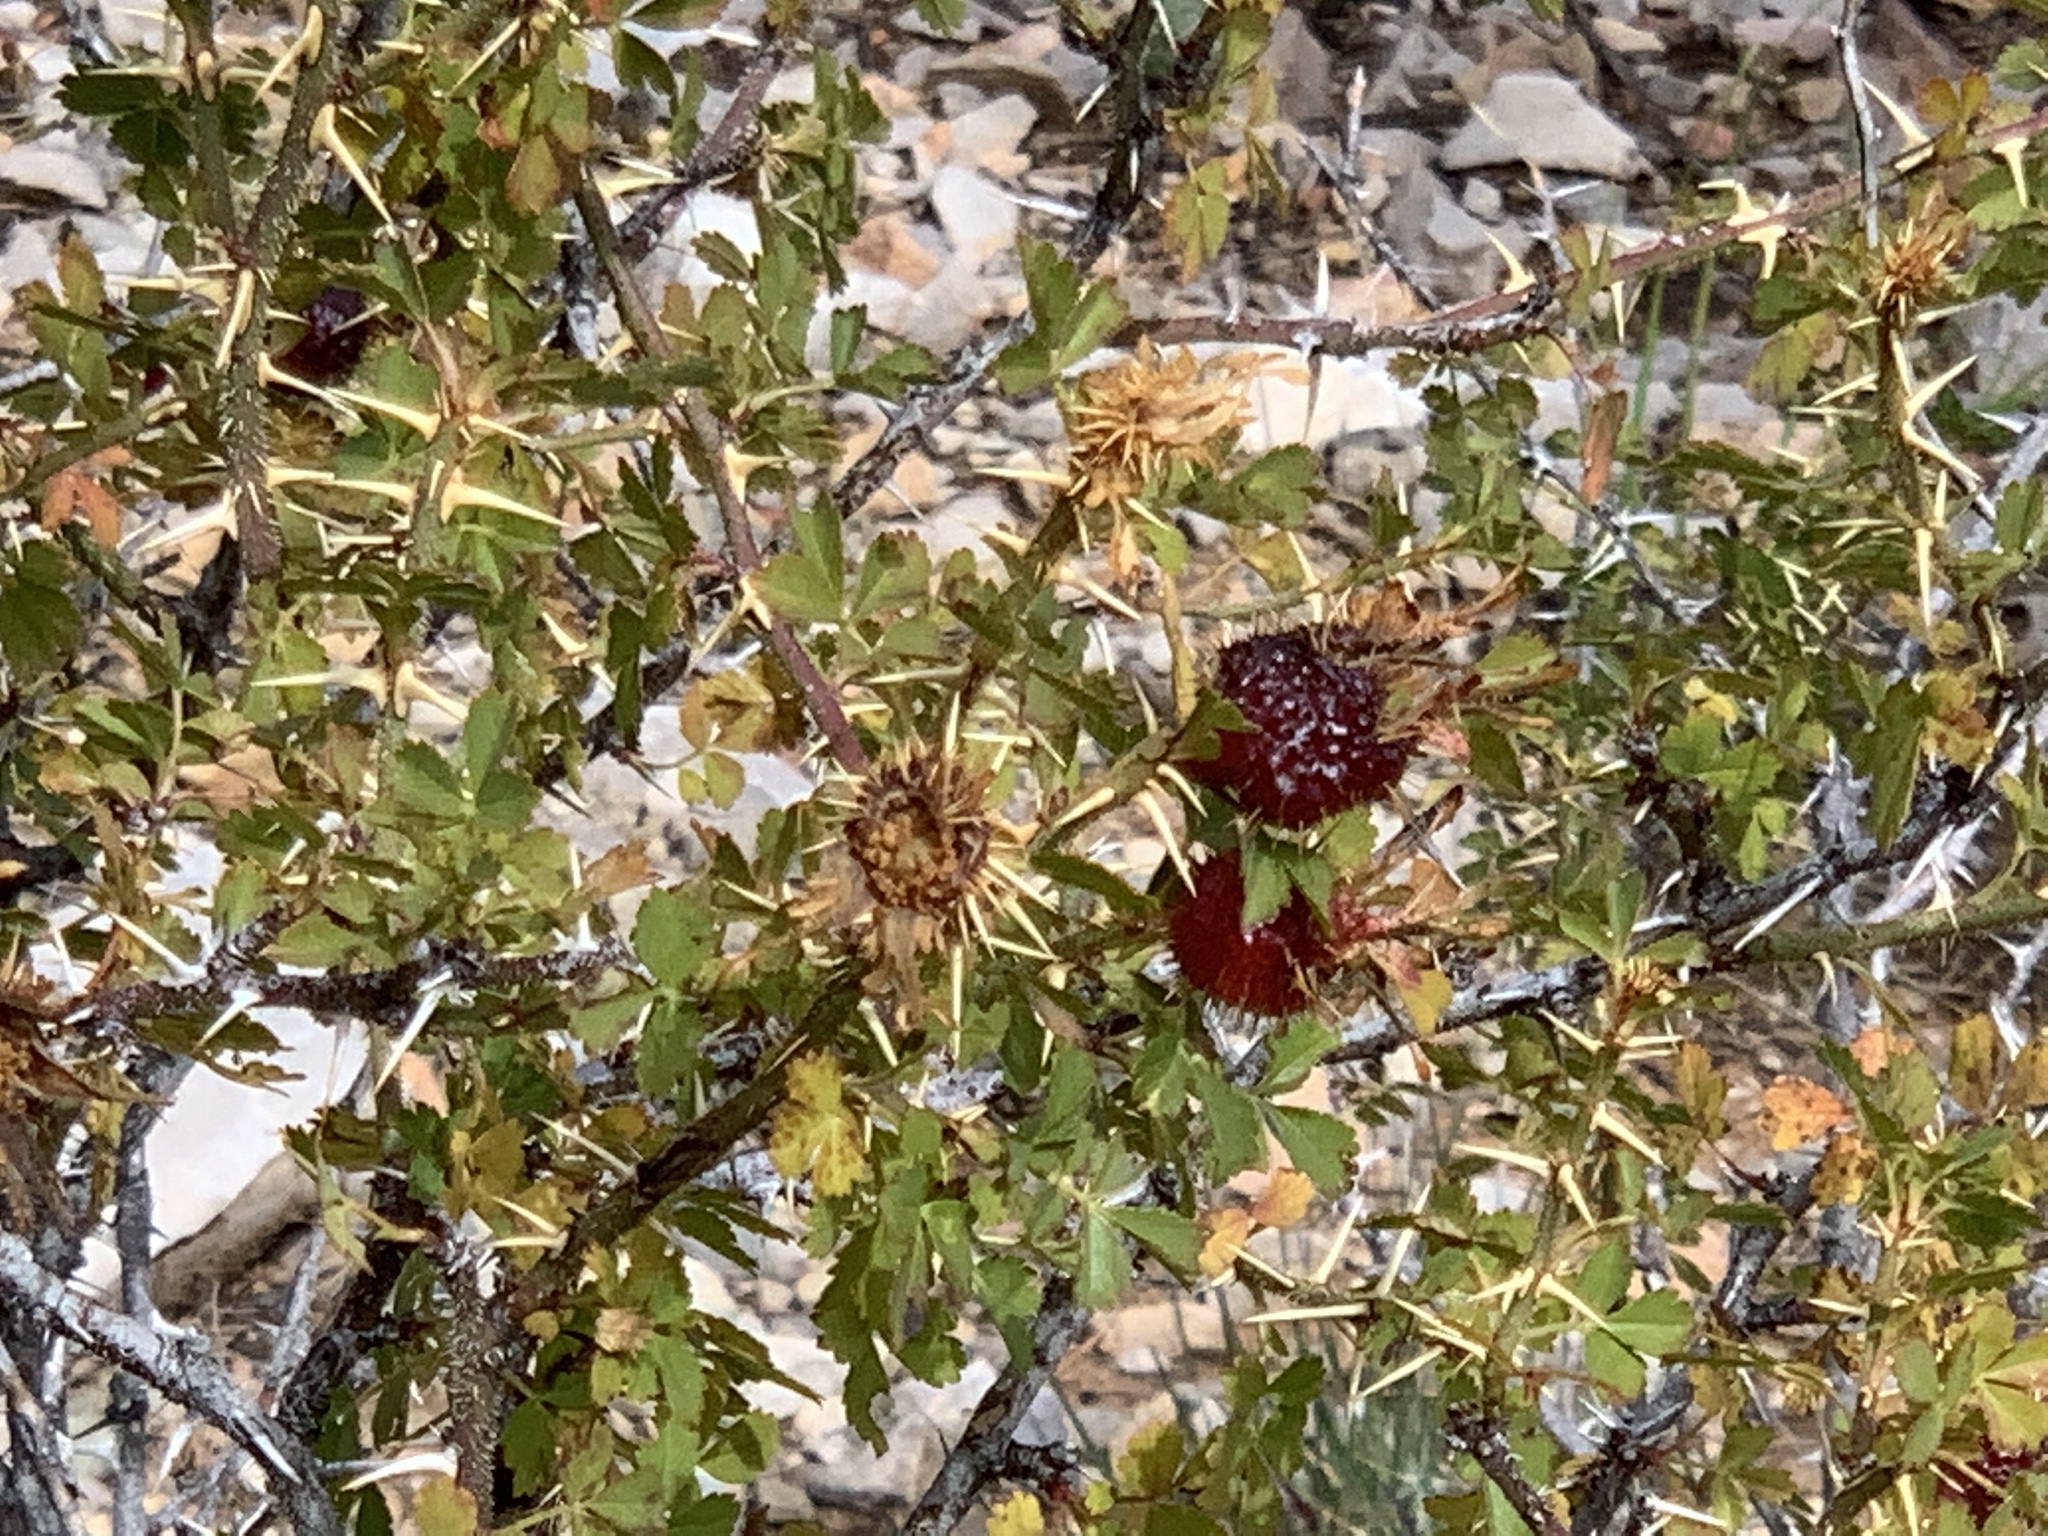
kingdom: Plantae
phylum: Tracheophyta
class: Magnoliopsida
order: Rosales
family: Rosaceae
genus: Rosa
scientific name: Rosa stellata
